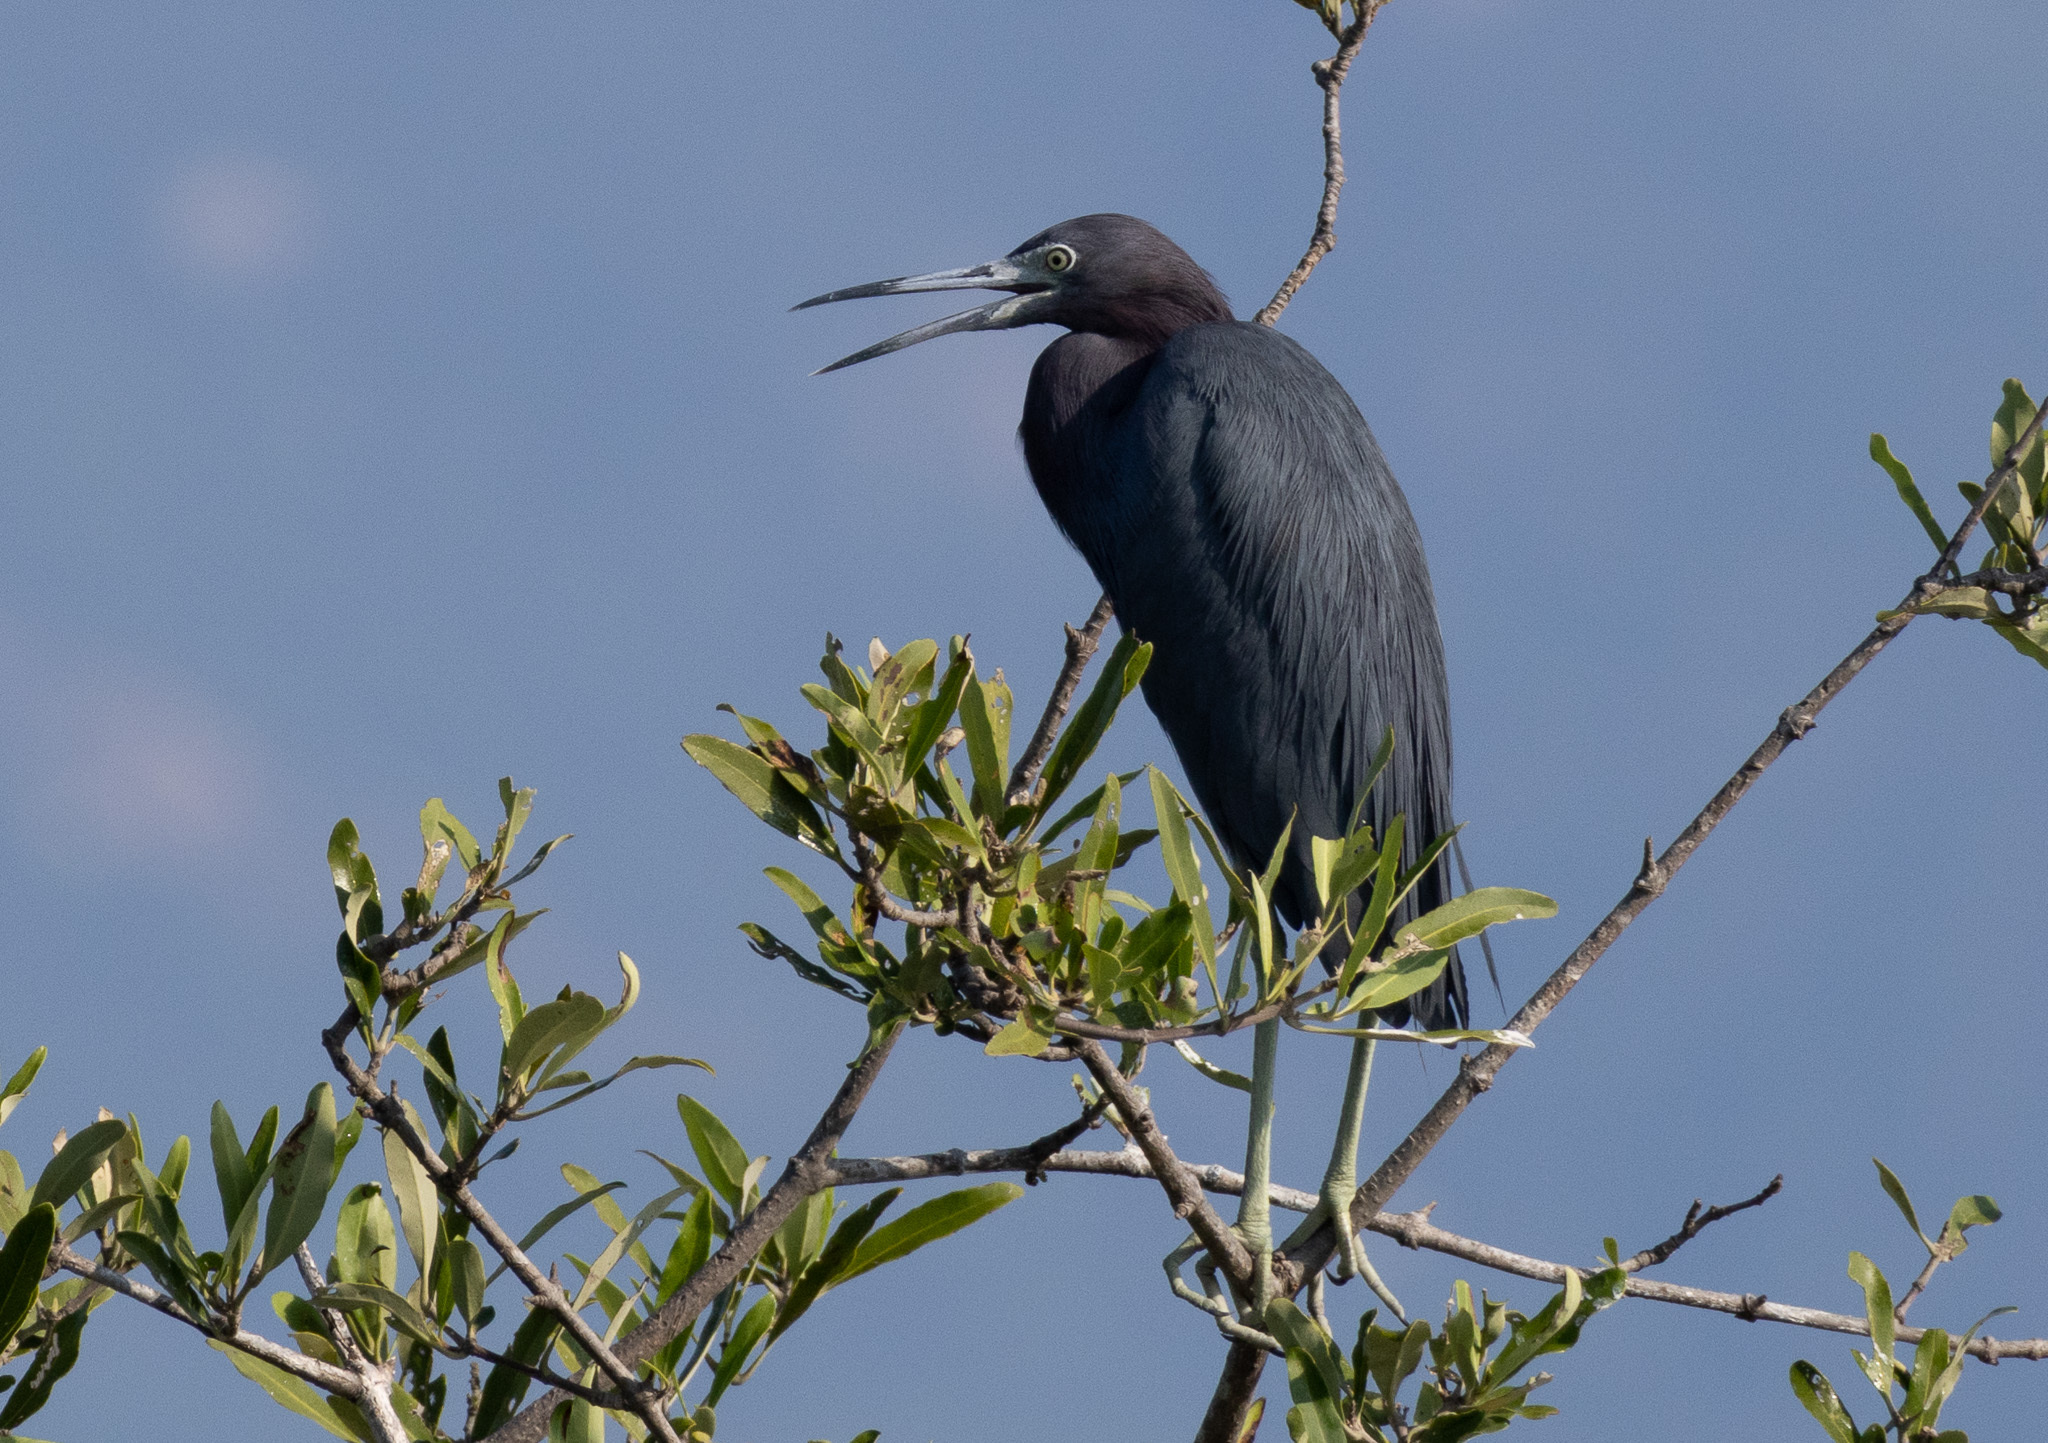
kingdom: Animalia
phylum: Chordata
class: Aves
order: Pelecaniformes
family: Ardeidae
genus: Egretta
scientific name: Egretta caerulea
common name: Little blue heron
